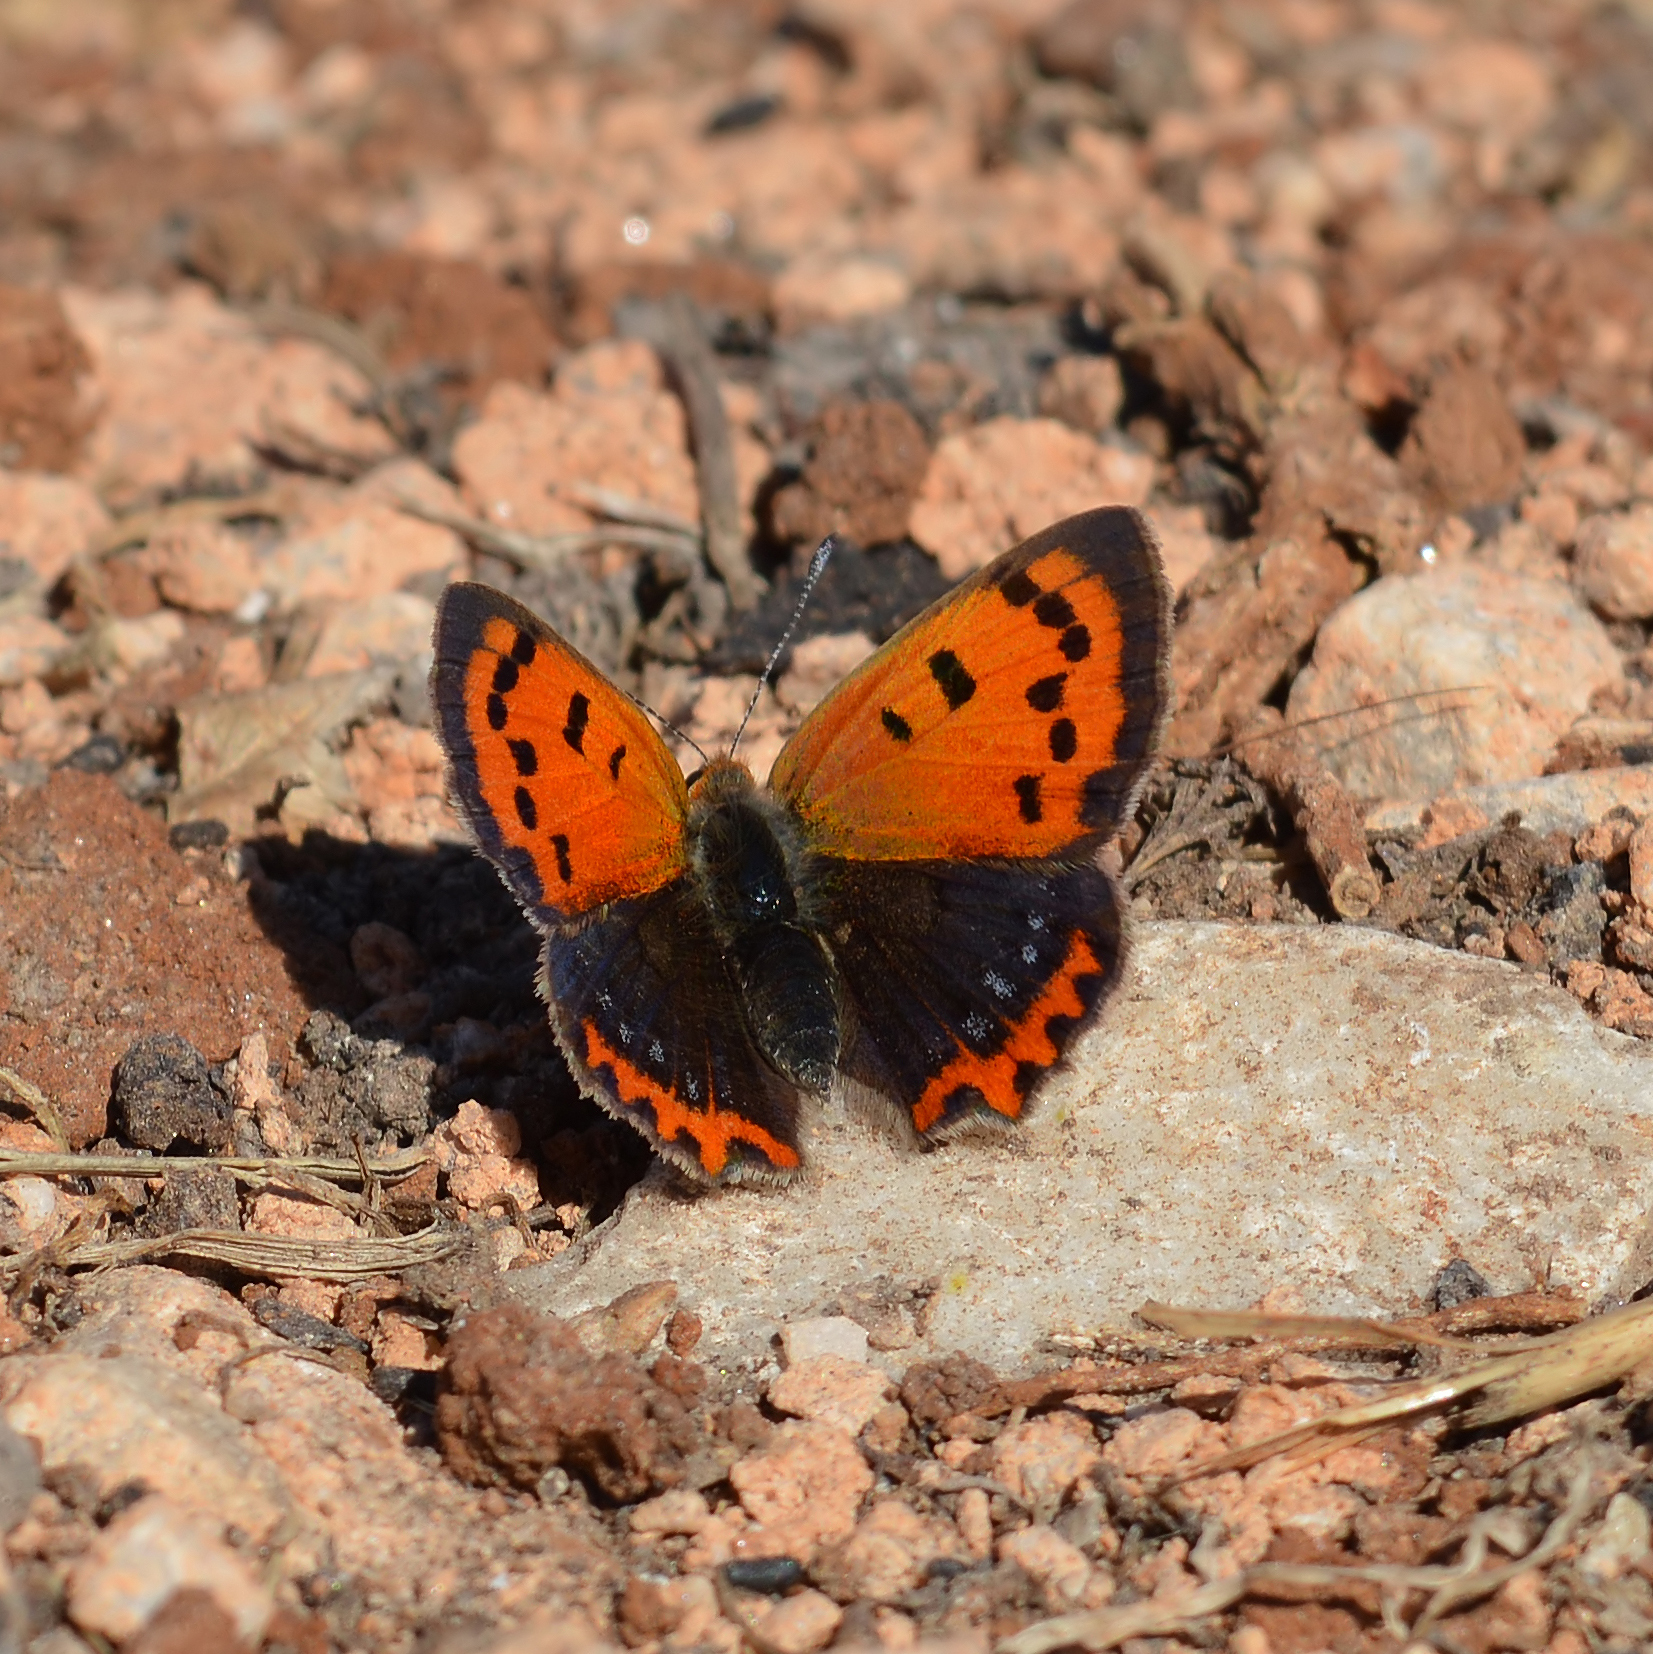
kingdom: Animalia
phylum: Arthropoda
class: Insecta
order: Lepidoptera
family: Lycaenidae
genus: Lycaena
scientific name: Lycaena phlaeas
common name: Small copper
